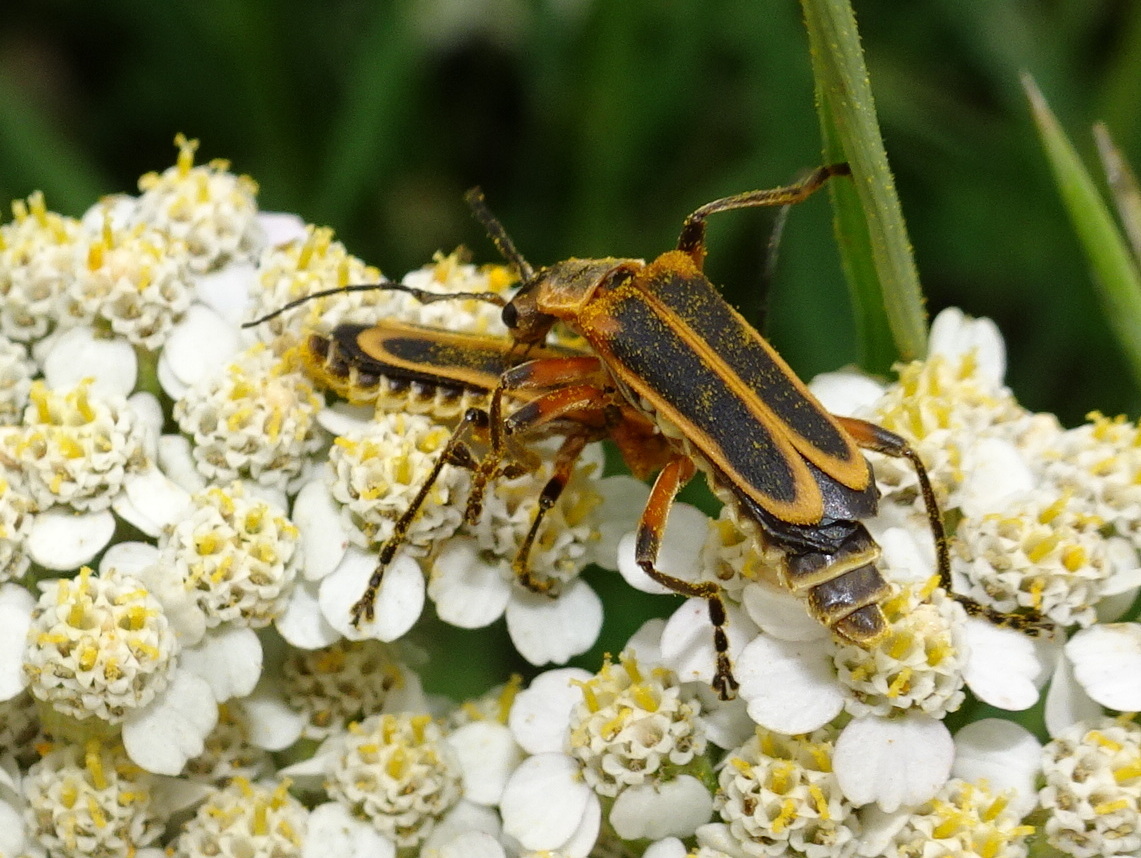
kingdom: Animalia
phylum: Arthropoda
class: Insecta
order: Coleoptera
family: Cantharidae
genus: Chauliognathus
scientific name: Chauliognathus marginatus
